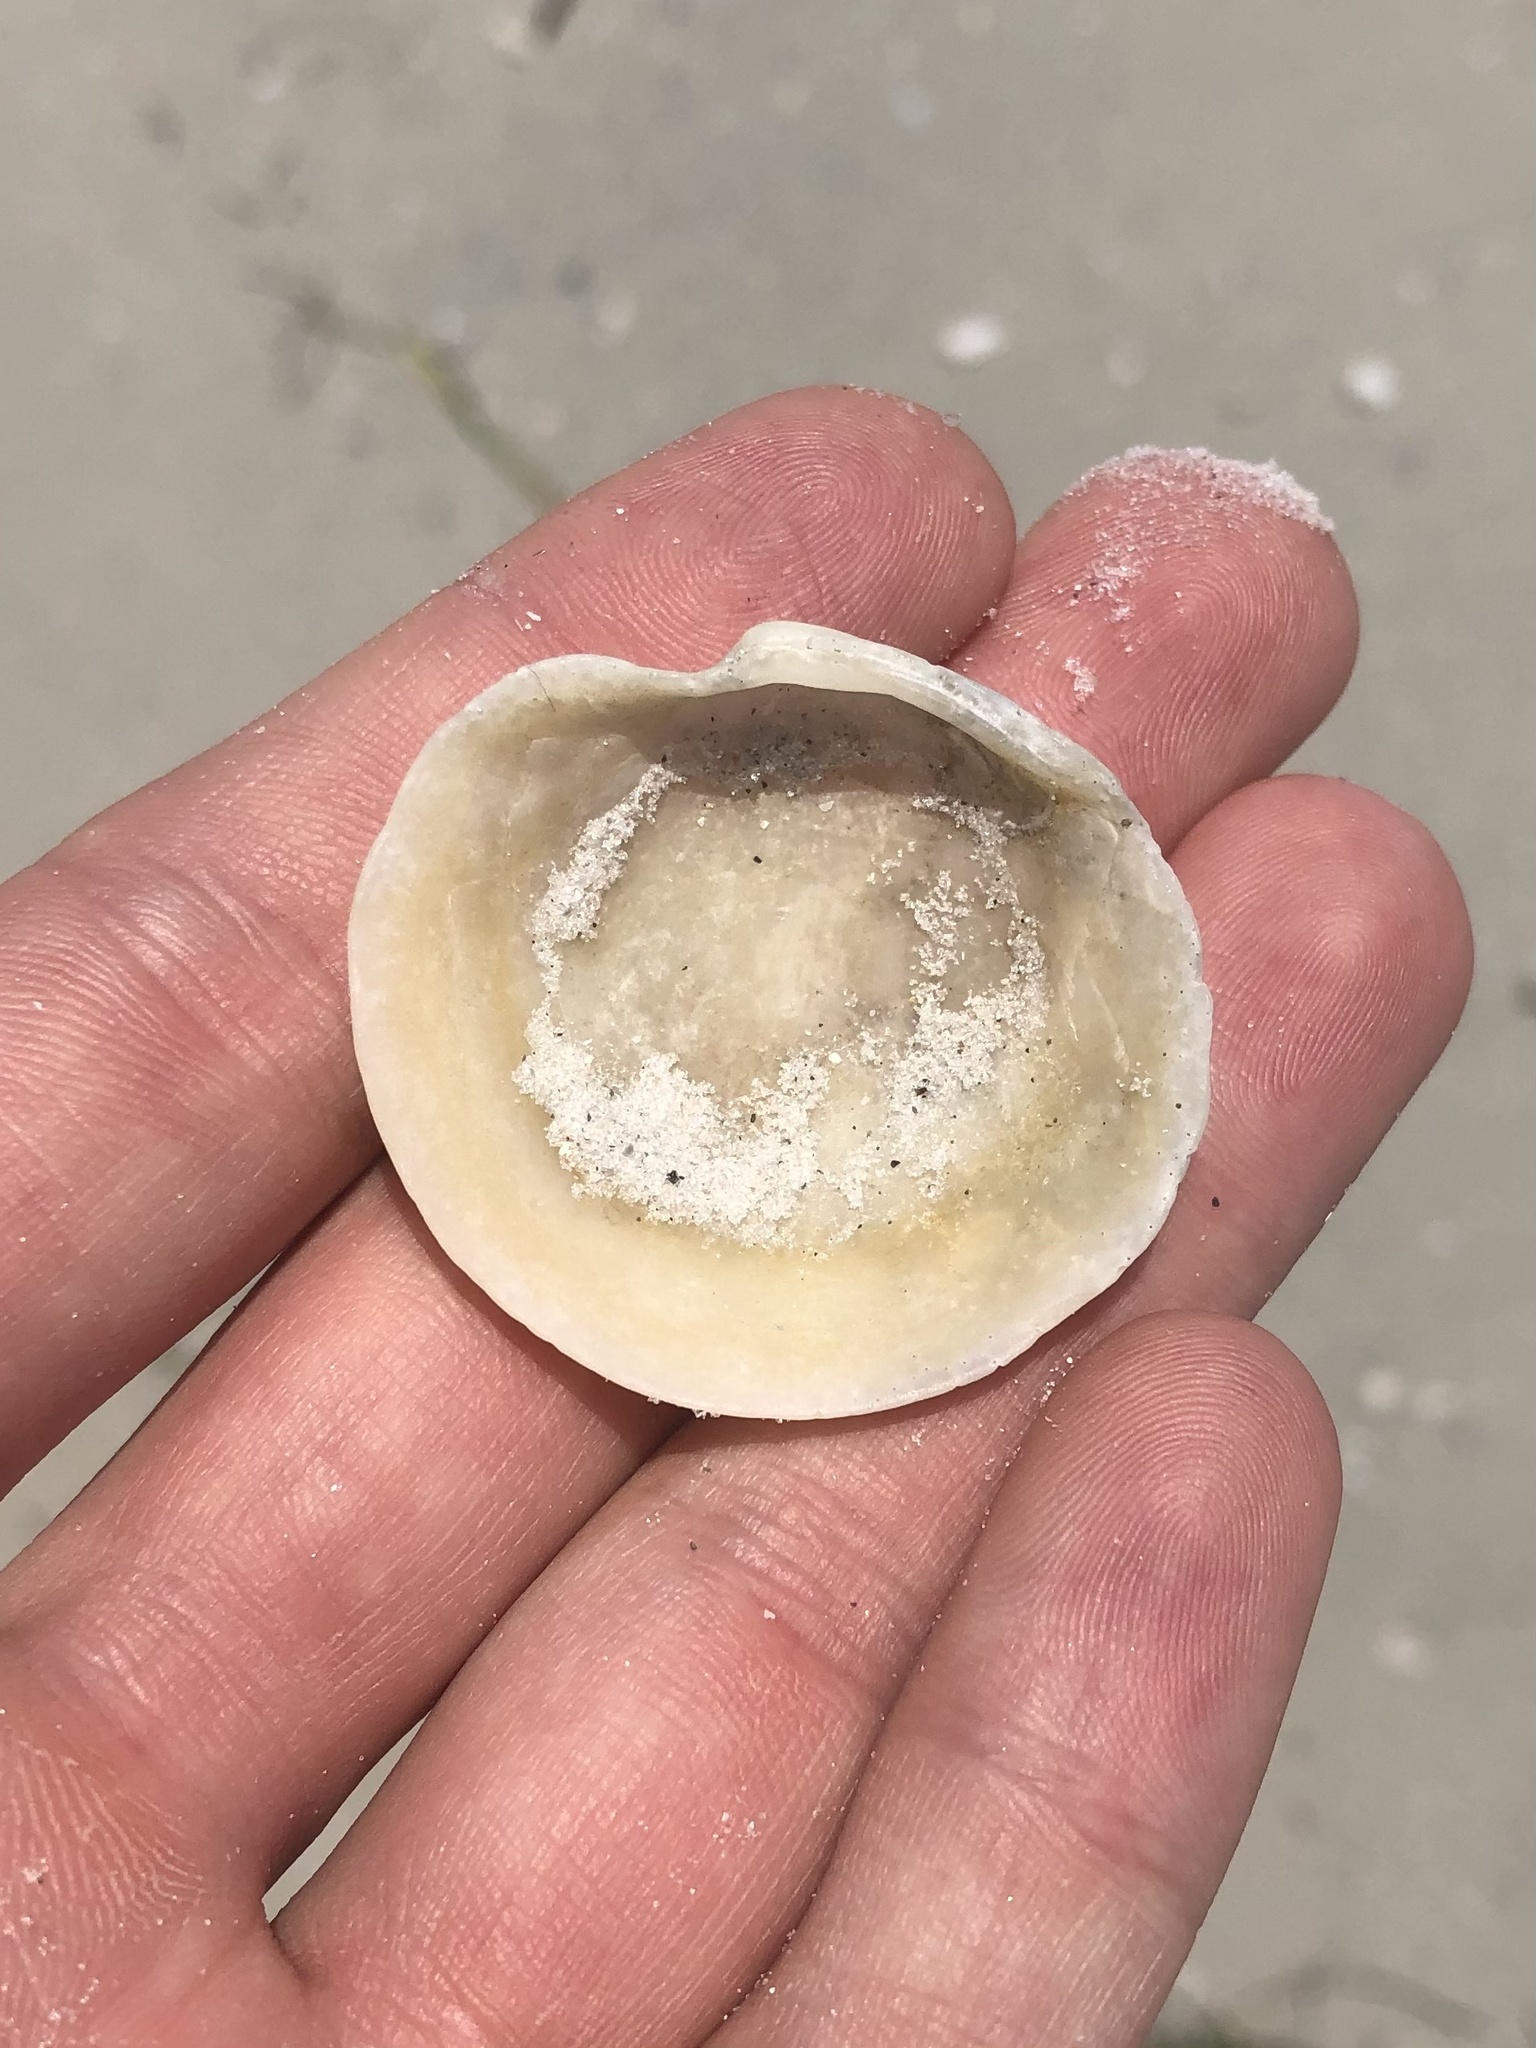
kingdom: Animalia
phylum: Mollusca
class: Bivalvia
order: Lucinida
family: Lucinidae
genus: Anodontia
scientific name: Anodontia alba
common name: Buttercup lucine
